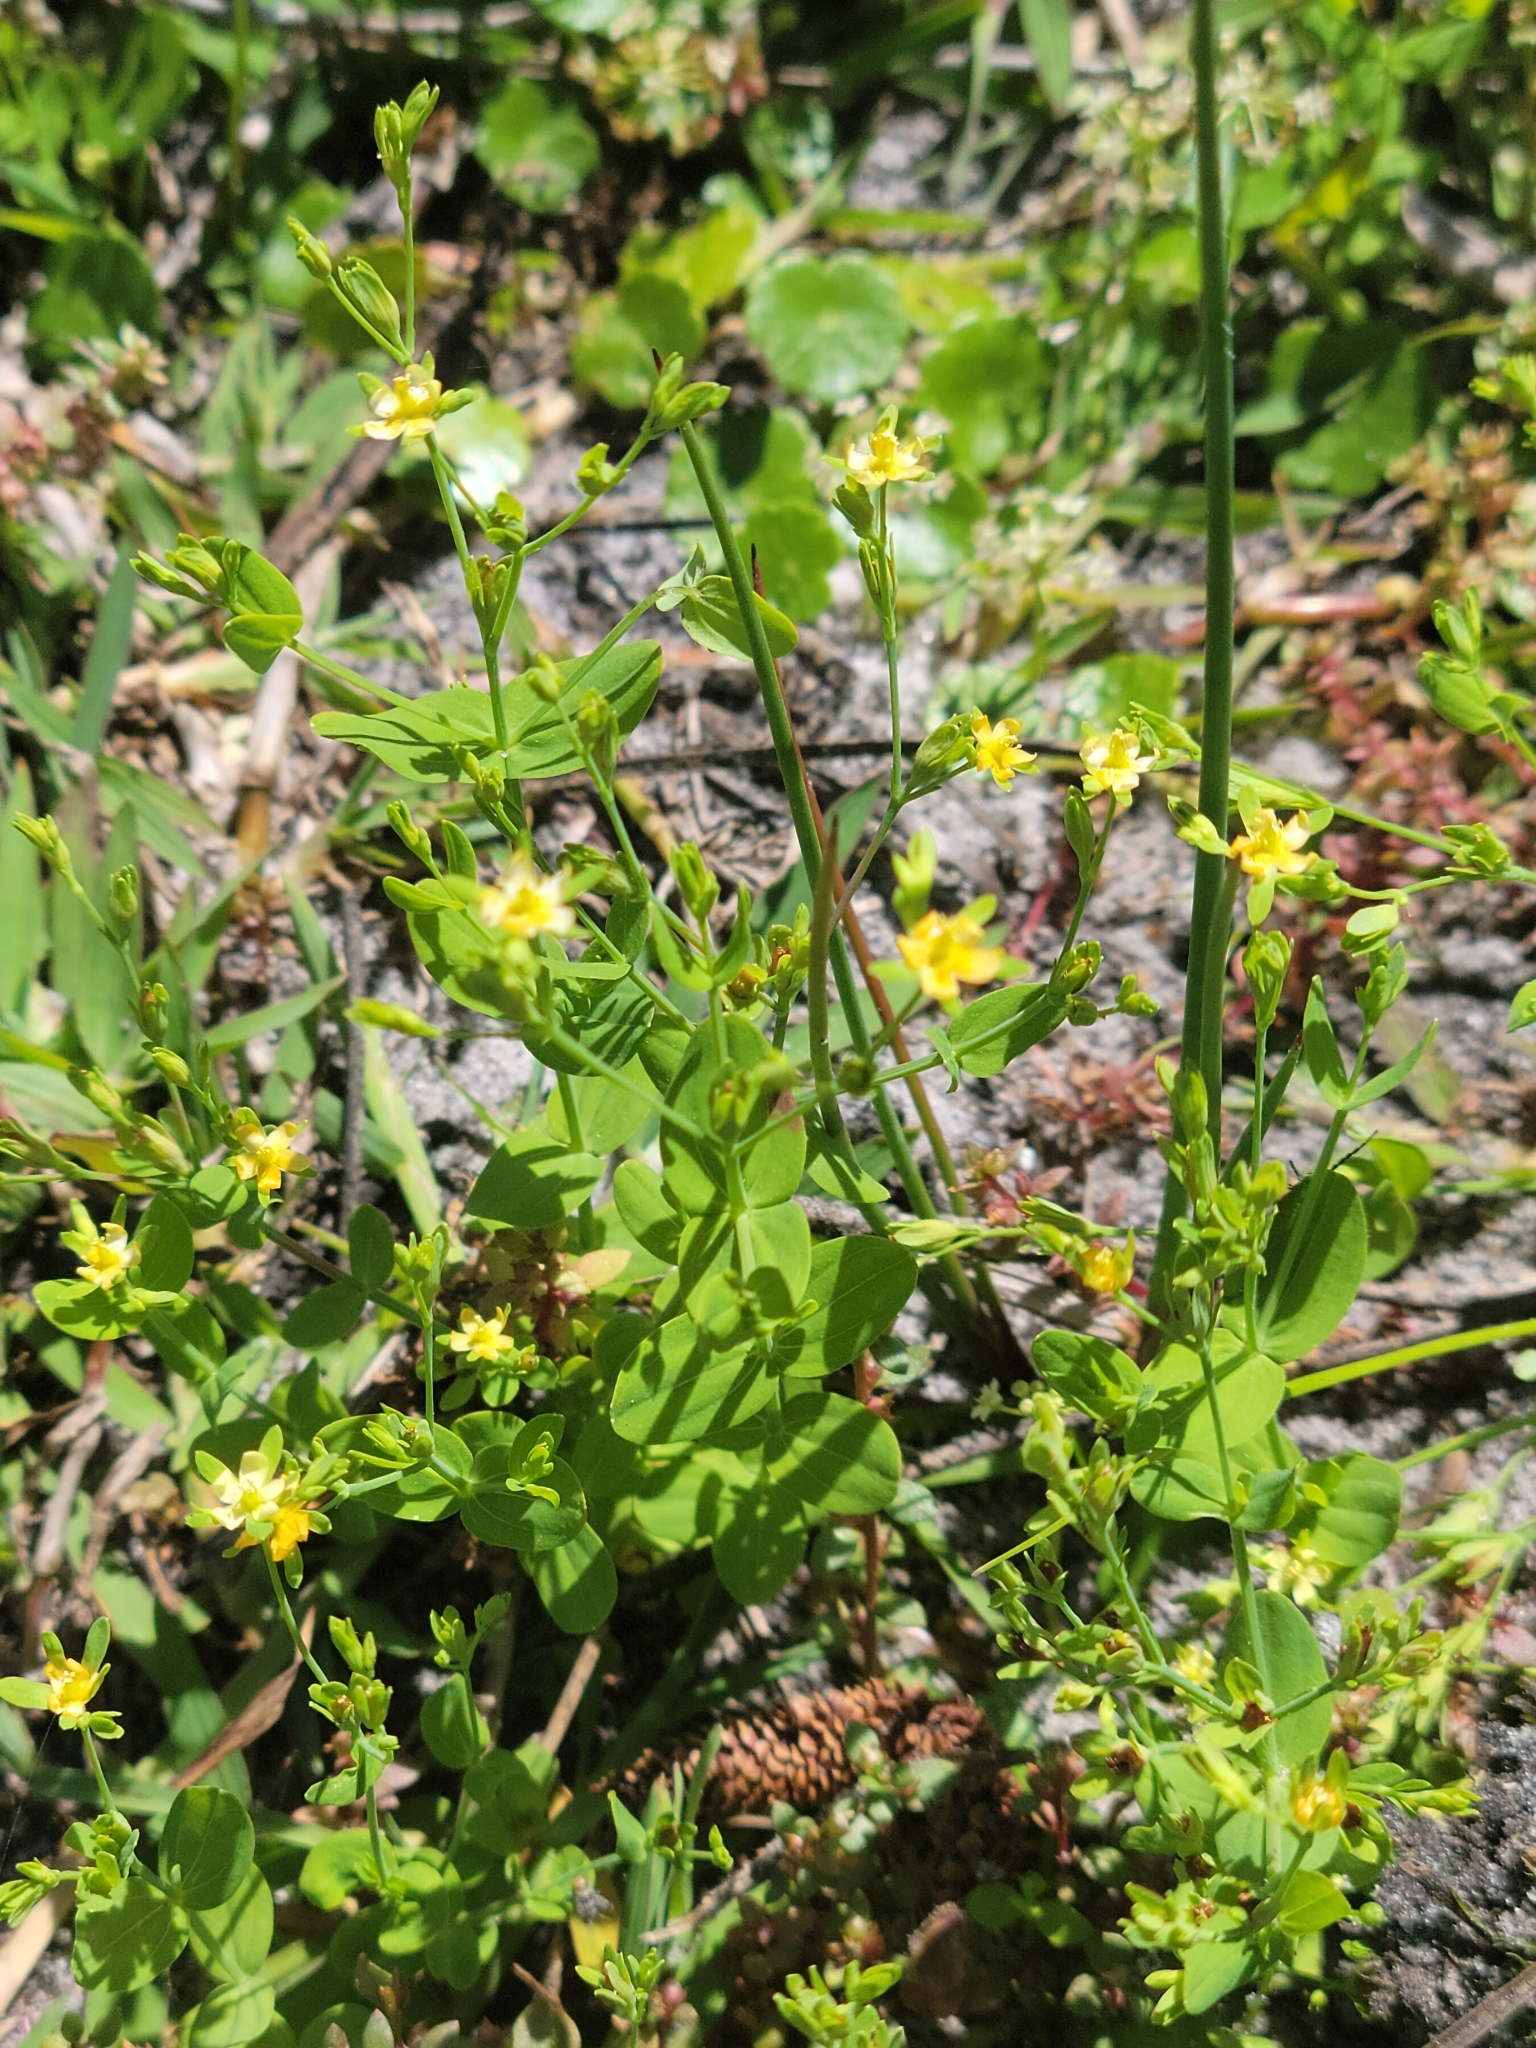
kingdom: Plantae
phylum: Tracheophyta
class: Magnoliopsida
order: Malpighiales
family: Hypericaceae
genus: Hypericum
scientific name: Hypericum mutilum
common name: Dwarf st. john's-wort
